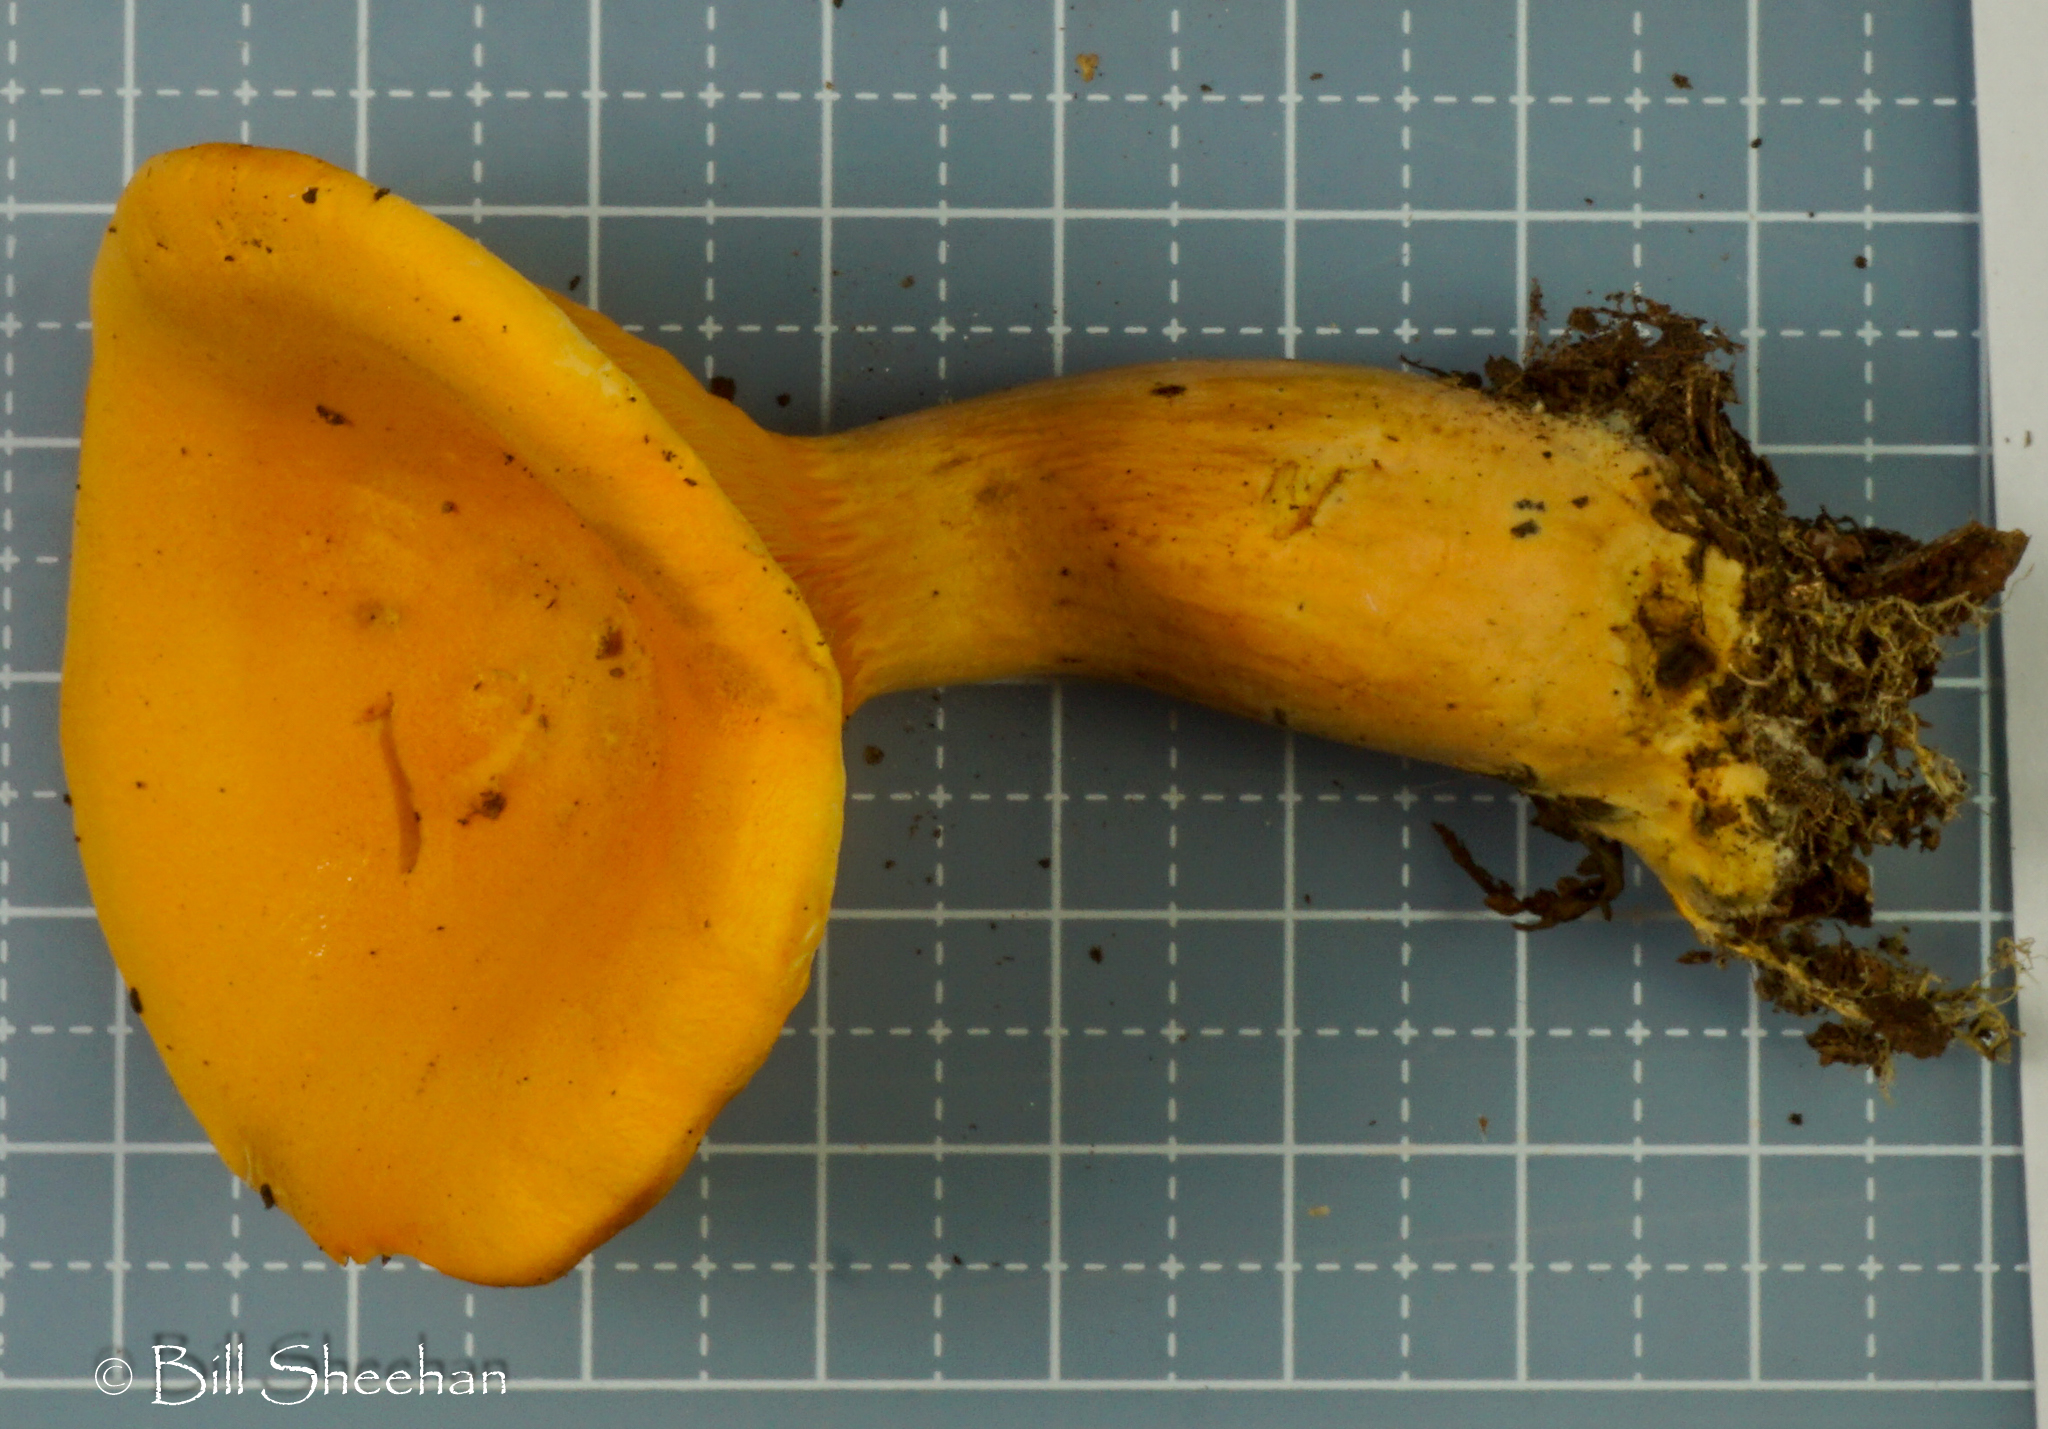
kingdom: Fungi
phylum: Basidiomycota
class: Agaricomycetes
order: Boletales
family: Hygrophoropsidaceae
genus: Hygrophoropsis
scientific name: Hygrophoropsis aurantiaca
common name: False chanterelle
